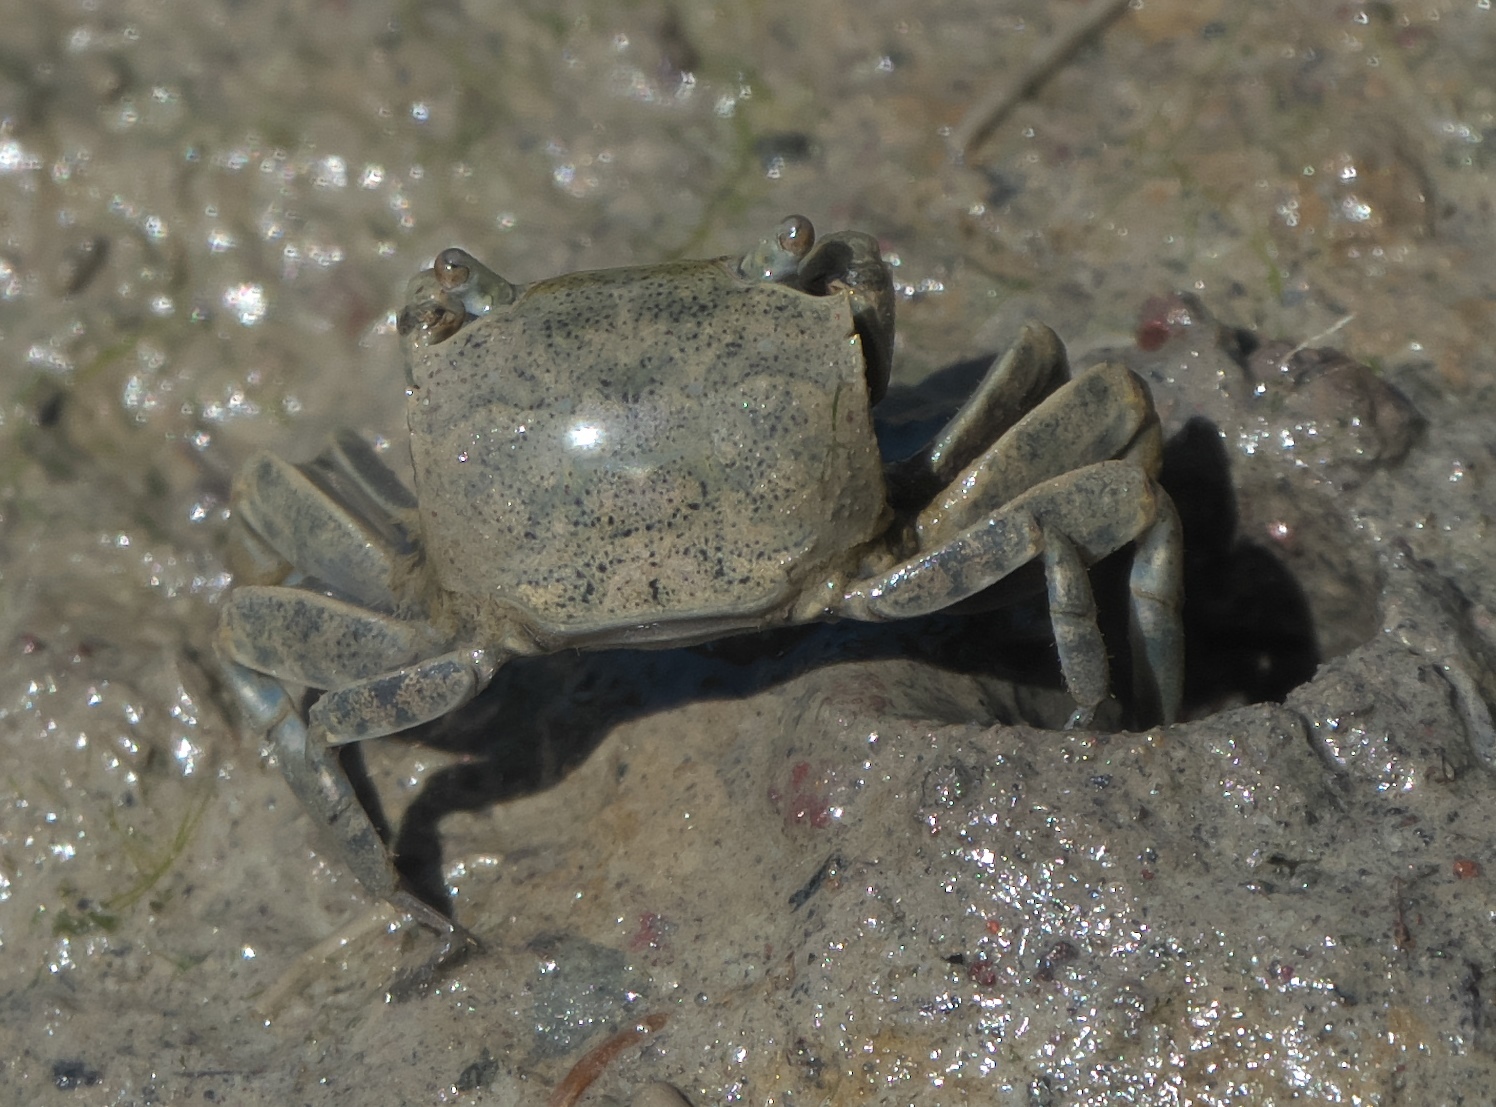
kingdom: Animalia
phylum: Arthropoda
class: Malacostraca
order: Decapoda
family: Varunidae
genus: Austrohelice
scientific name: Austrohelice crassa
